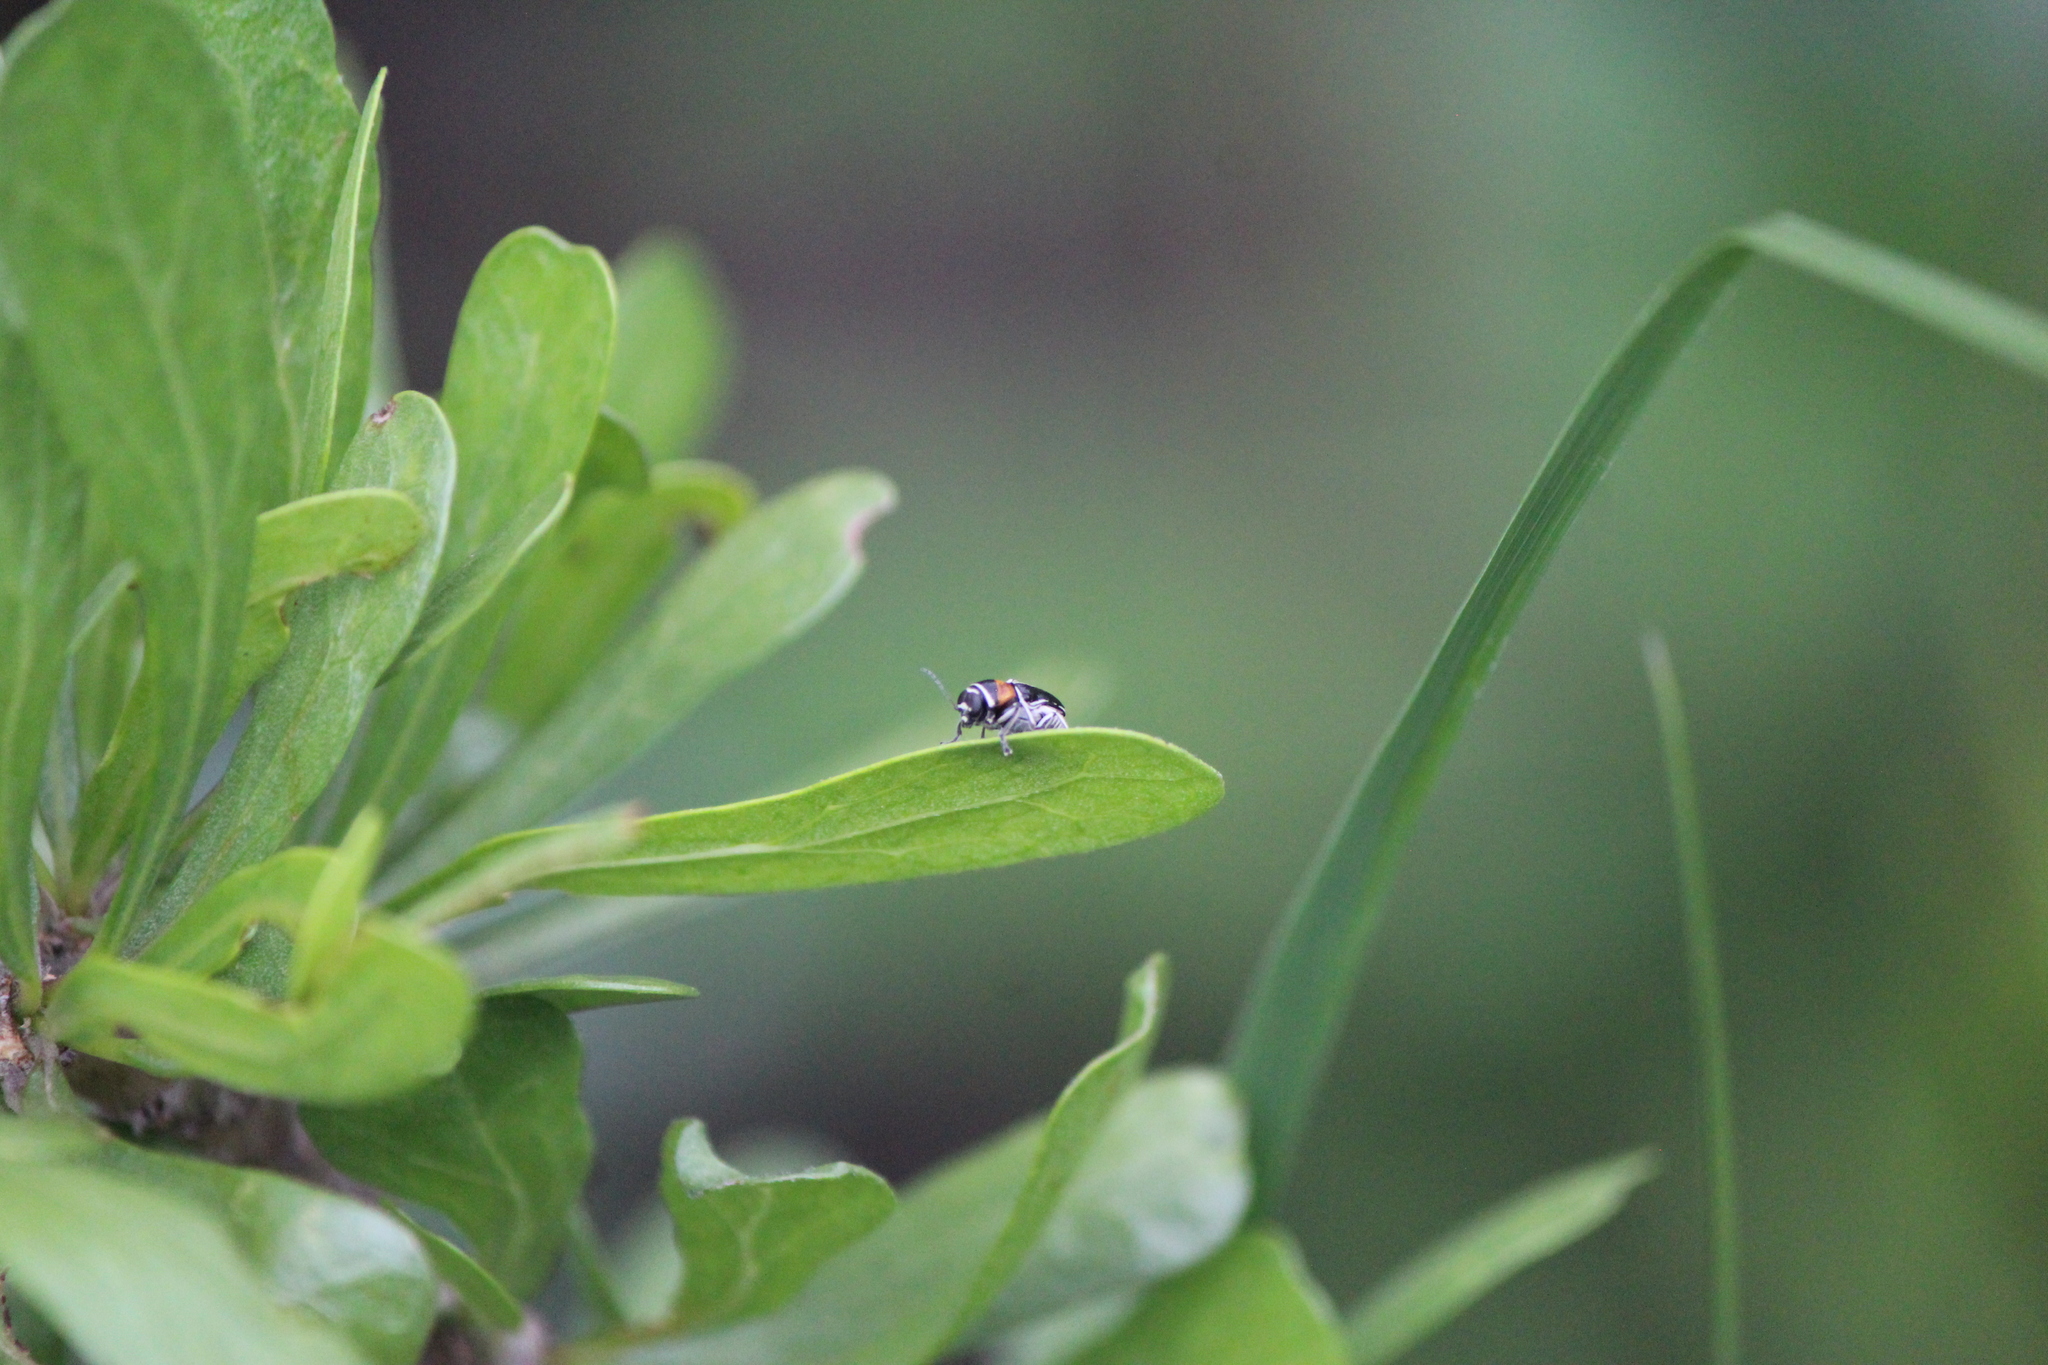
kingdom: Animalia
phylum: Arthropoda
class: Insecta
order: Coleoptera
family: Chrysomelidae
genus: Griburius
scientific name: Griburius montezuma
